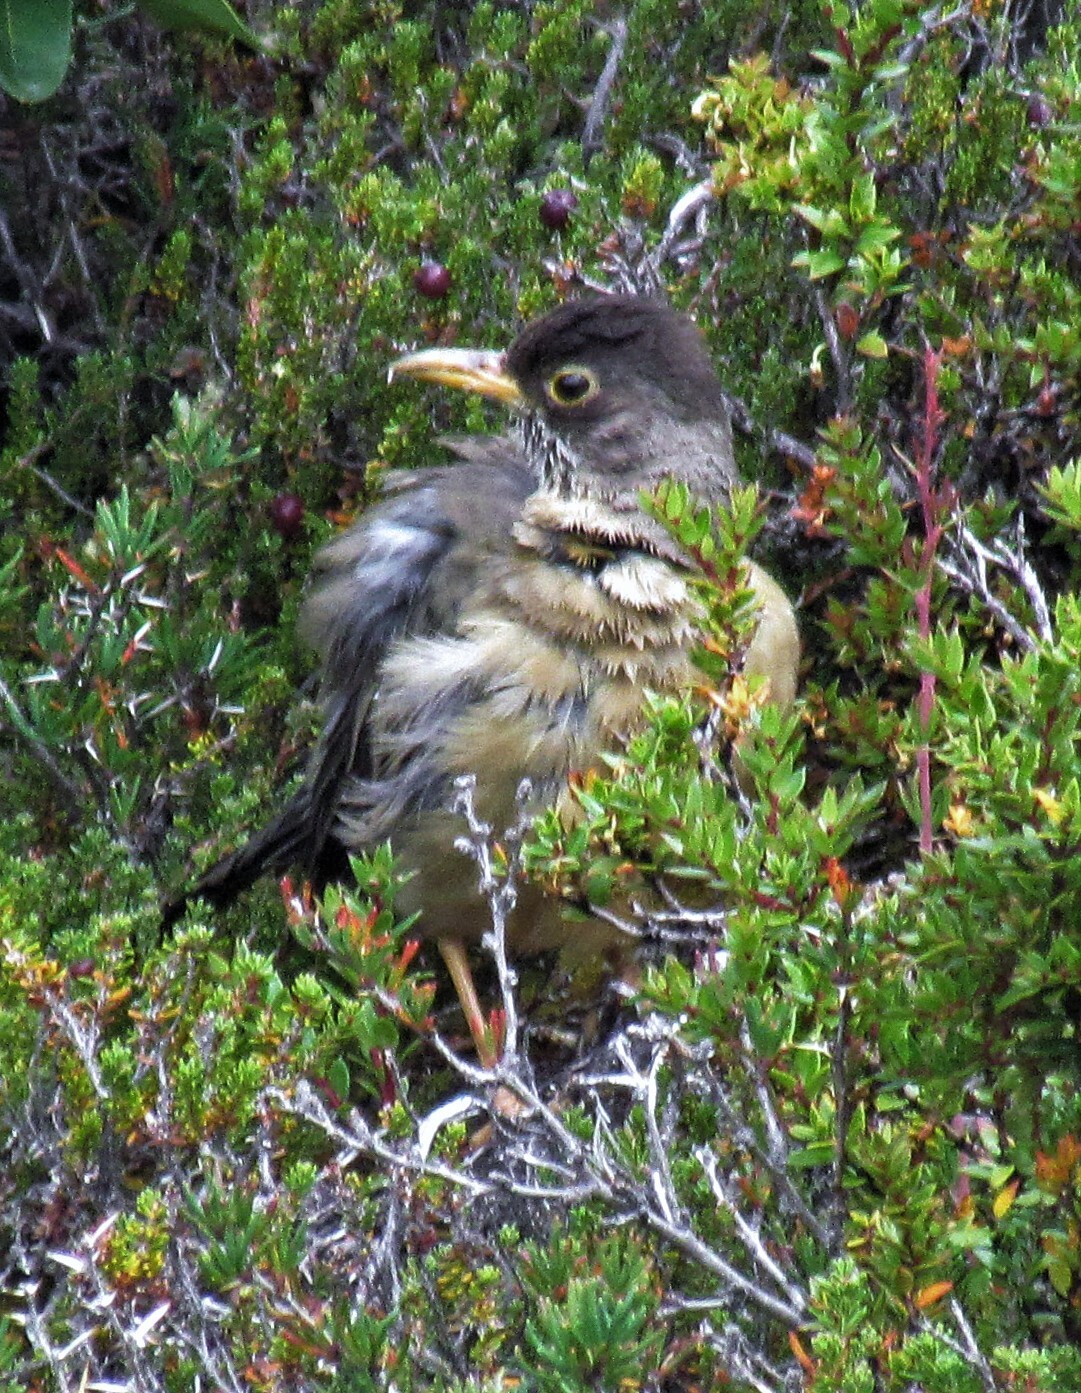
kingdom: Animalia
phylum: Chordata
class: Aves
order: Passeriformes
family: Turdidae
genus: Turdus
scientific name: Turdus falcklandii
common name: Austral thrush
